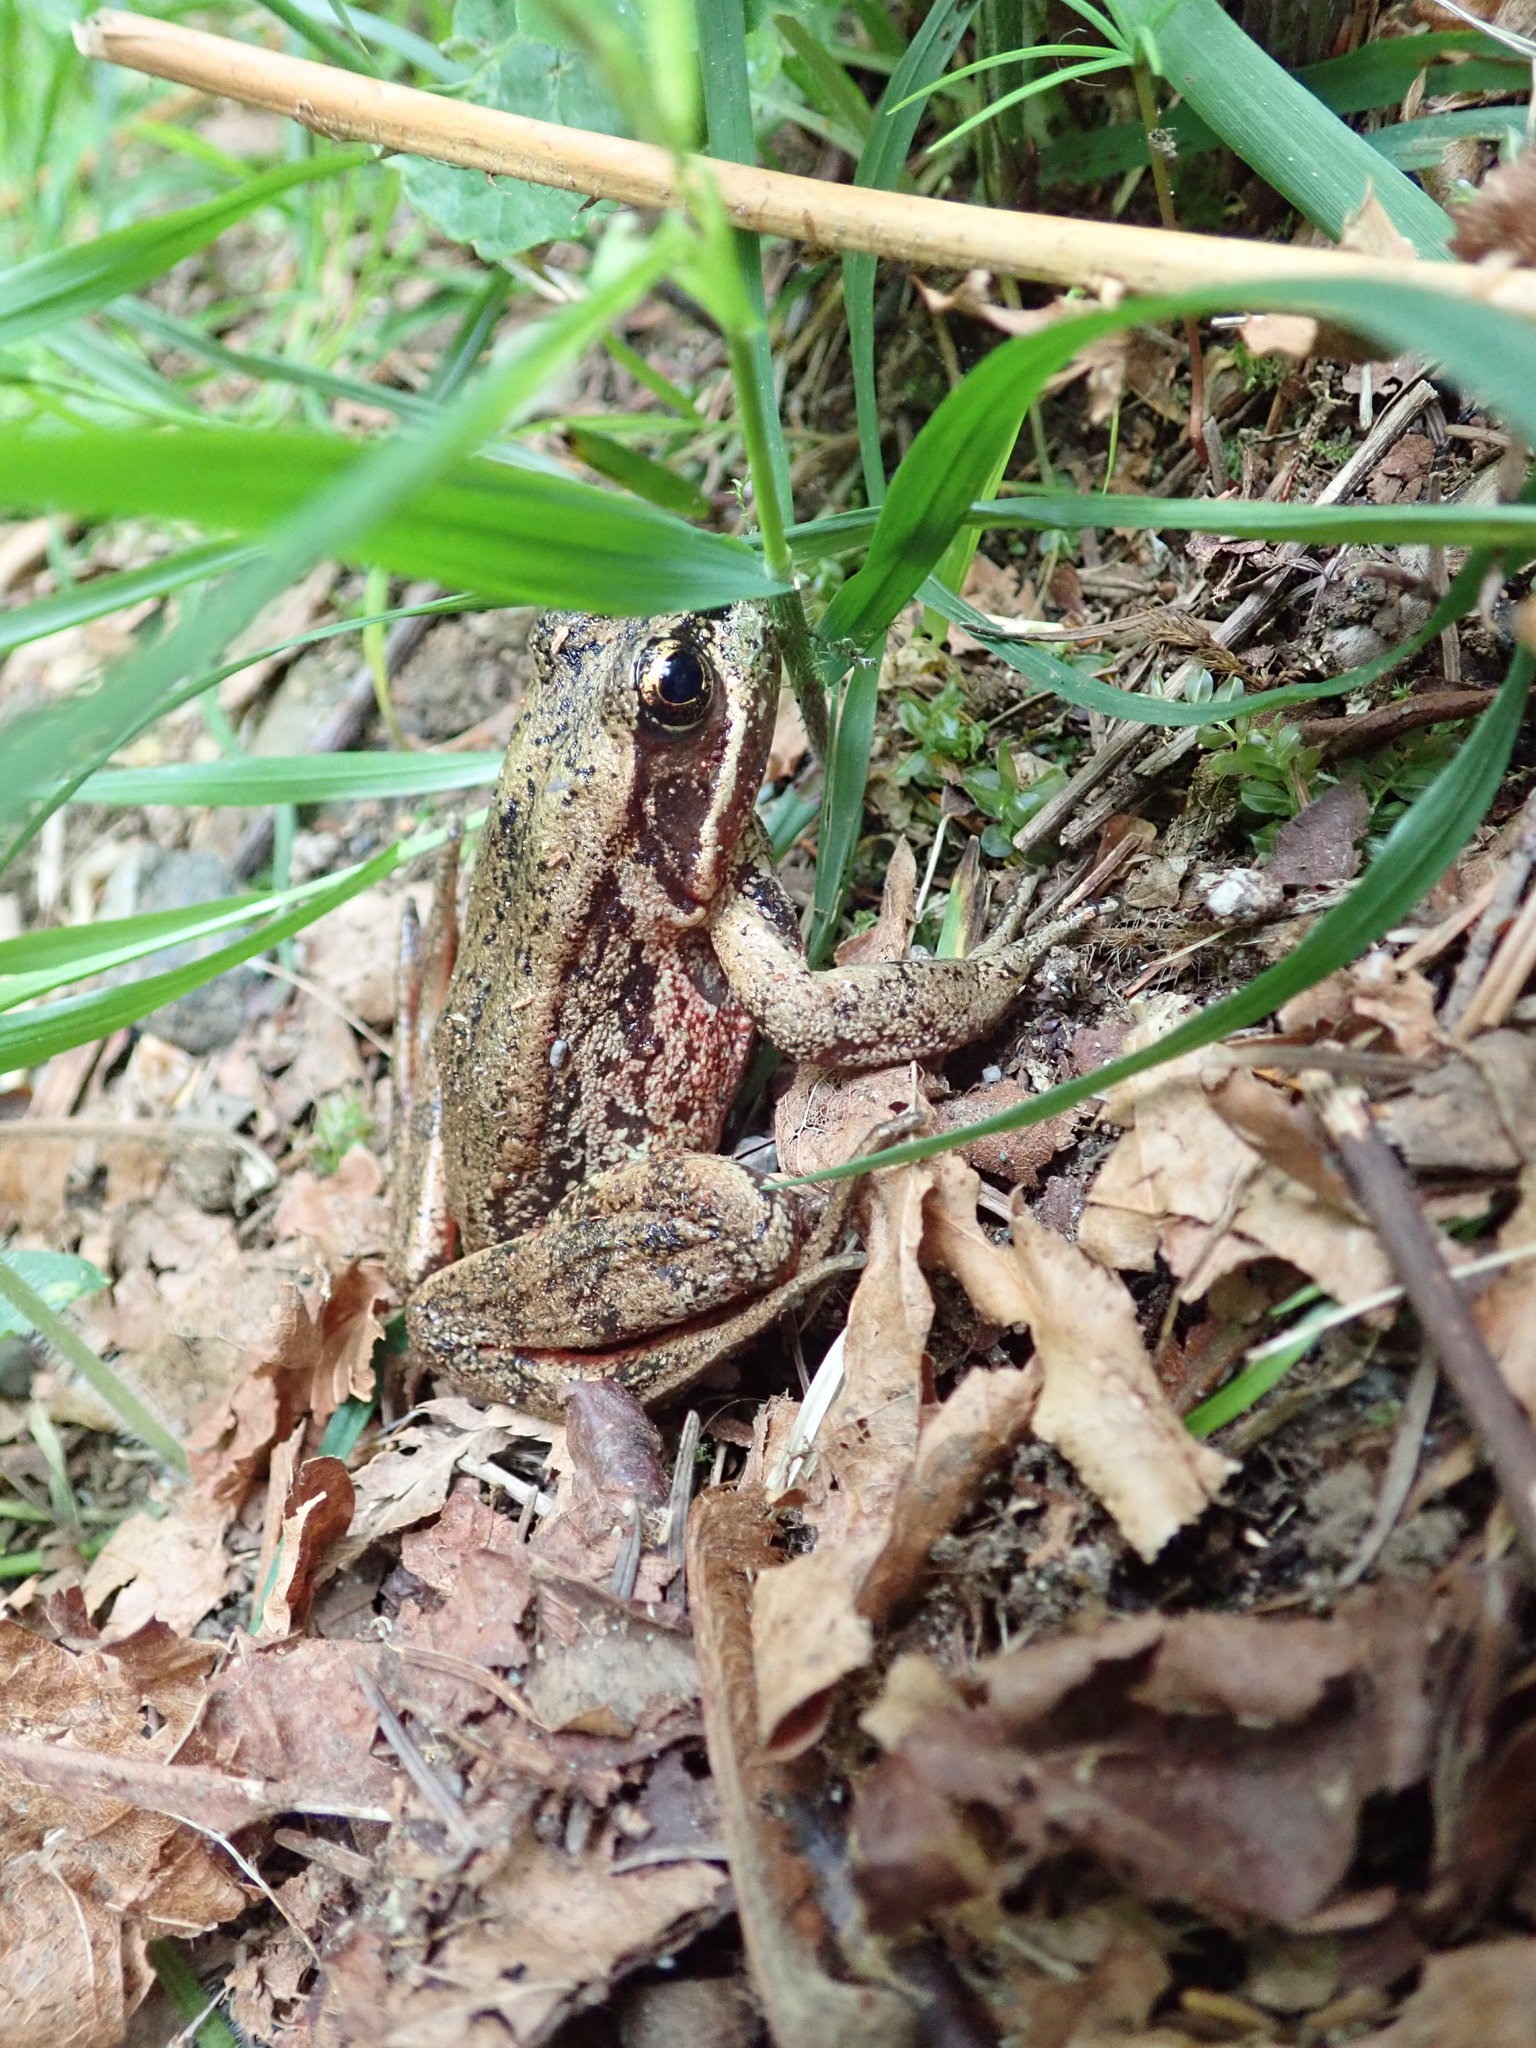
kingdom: Animalia
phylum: Chordata
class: Amphibia
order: Anura
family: Ranidae
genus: Rana
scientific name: Rana aurora
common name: Red-legged frog
